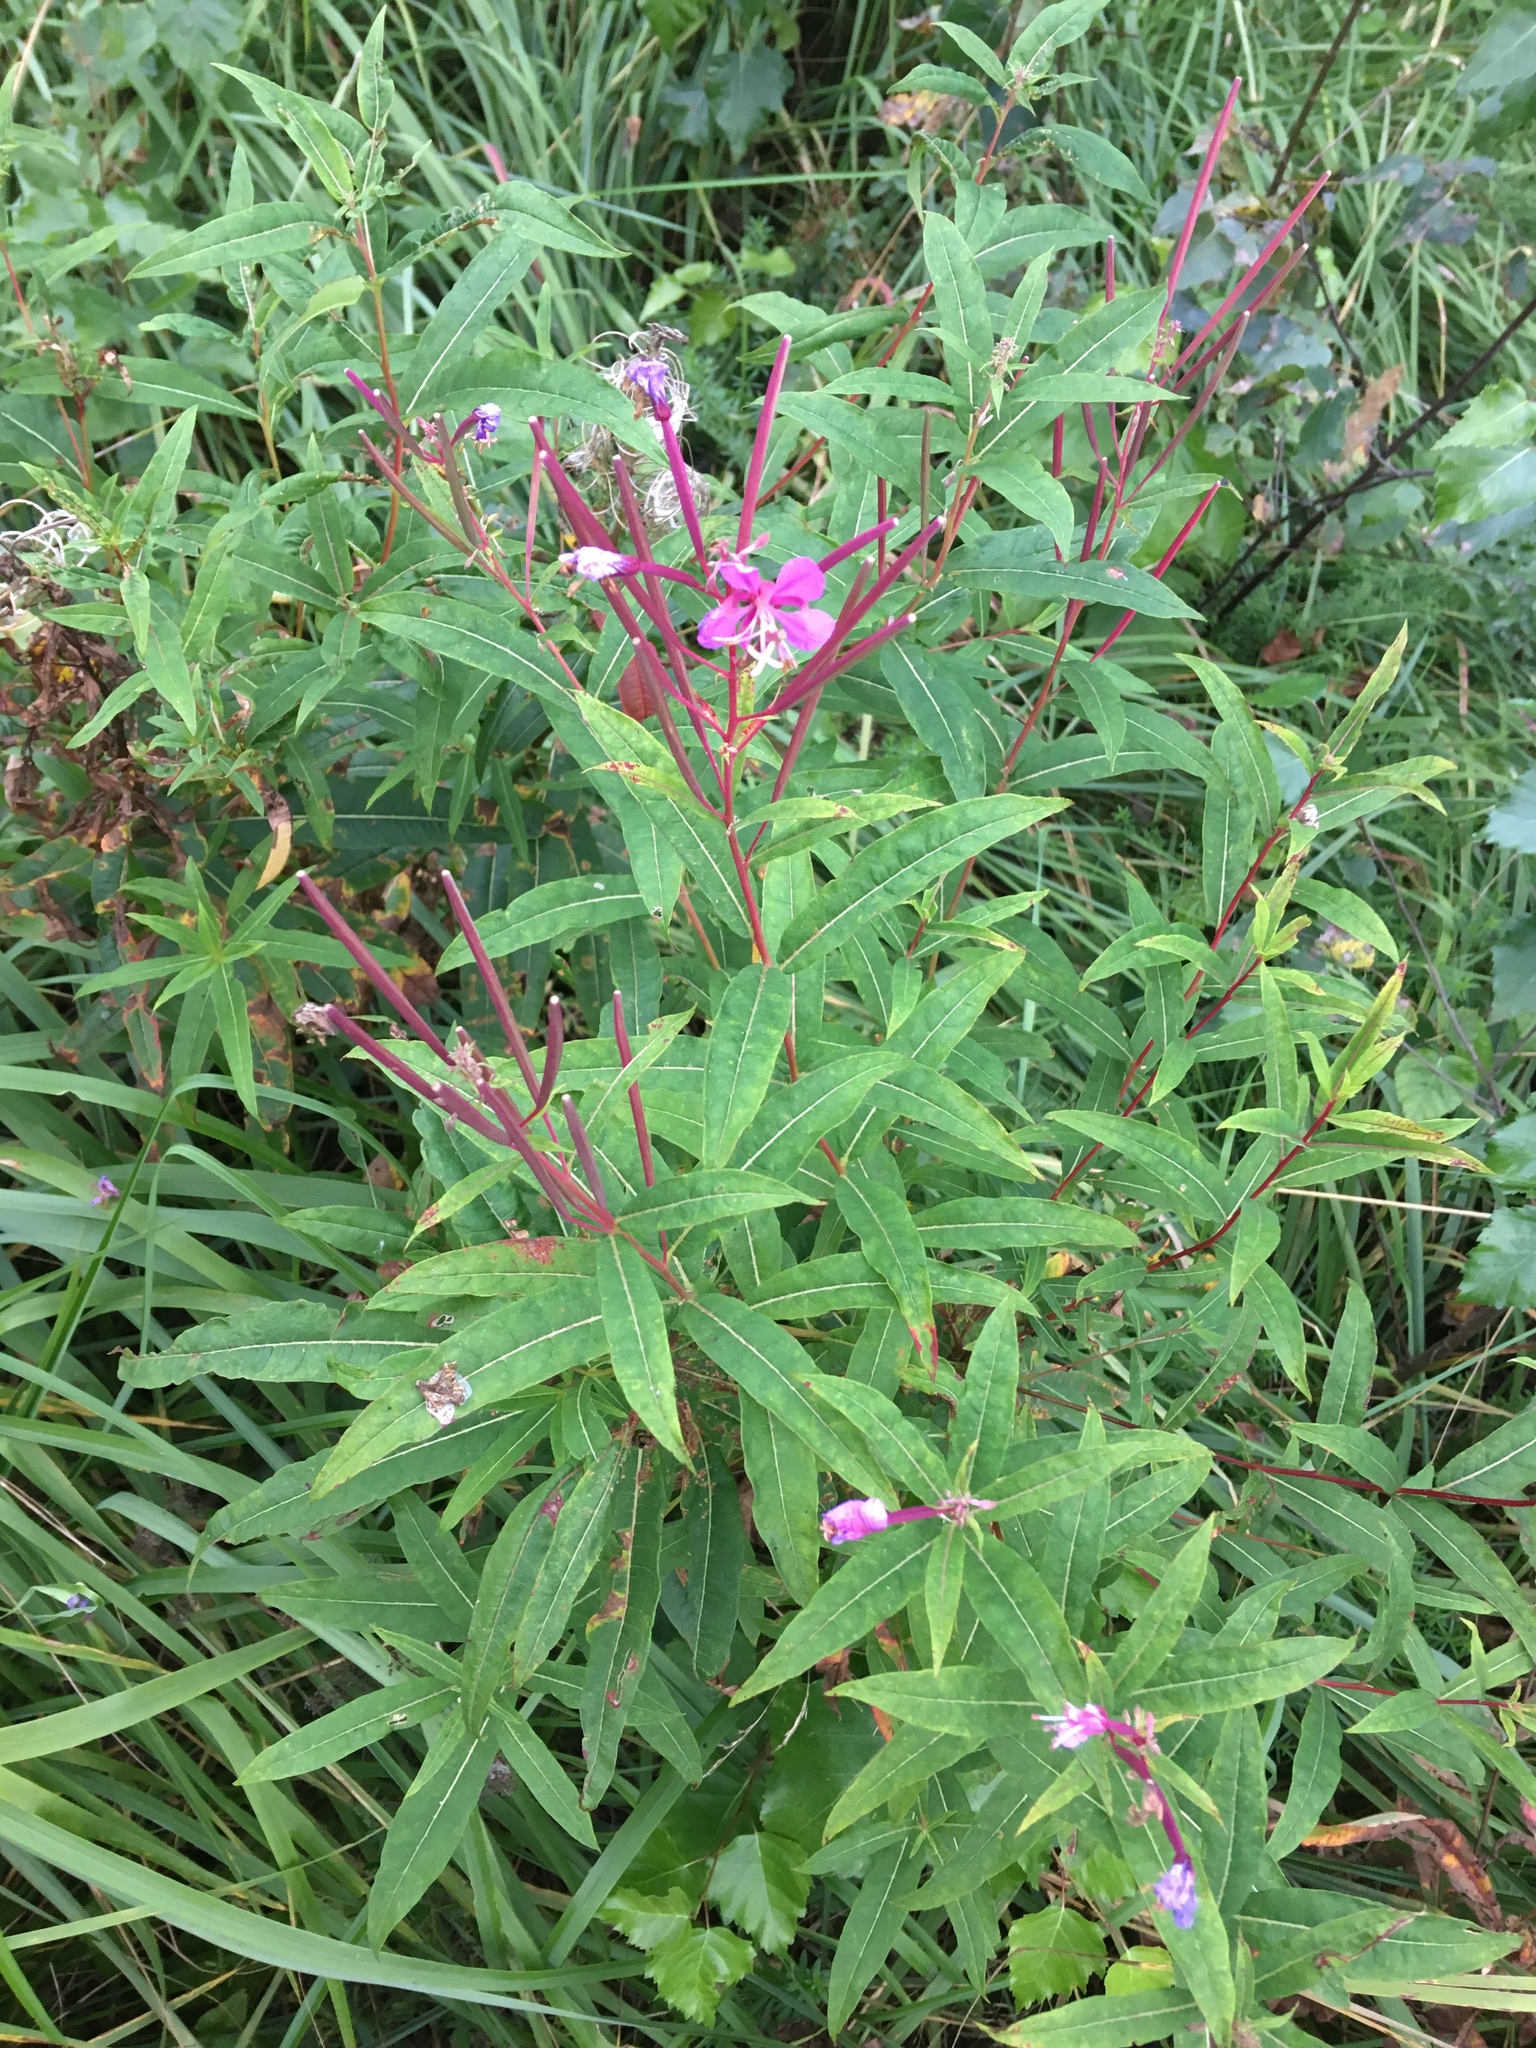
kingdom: Plantae
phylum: Tracheophyta
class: Magnoliopsida
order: Myrtales
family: Onagraceae
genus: Chamaenerion
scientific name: Chamaenerion angustifolium
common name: Fireweed
